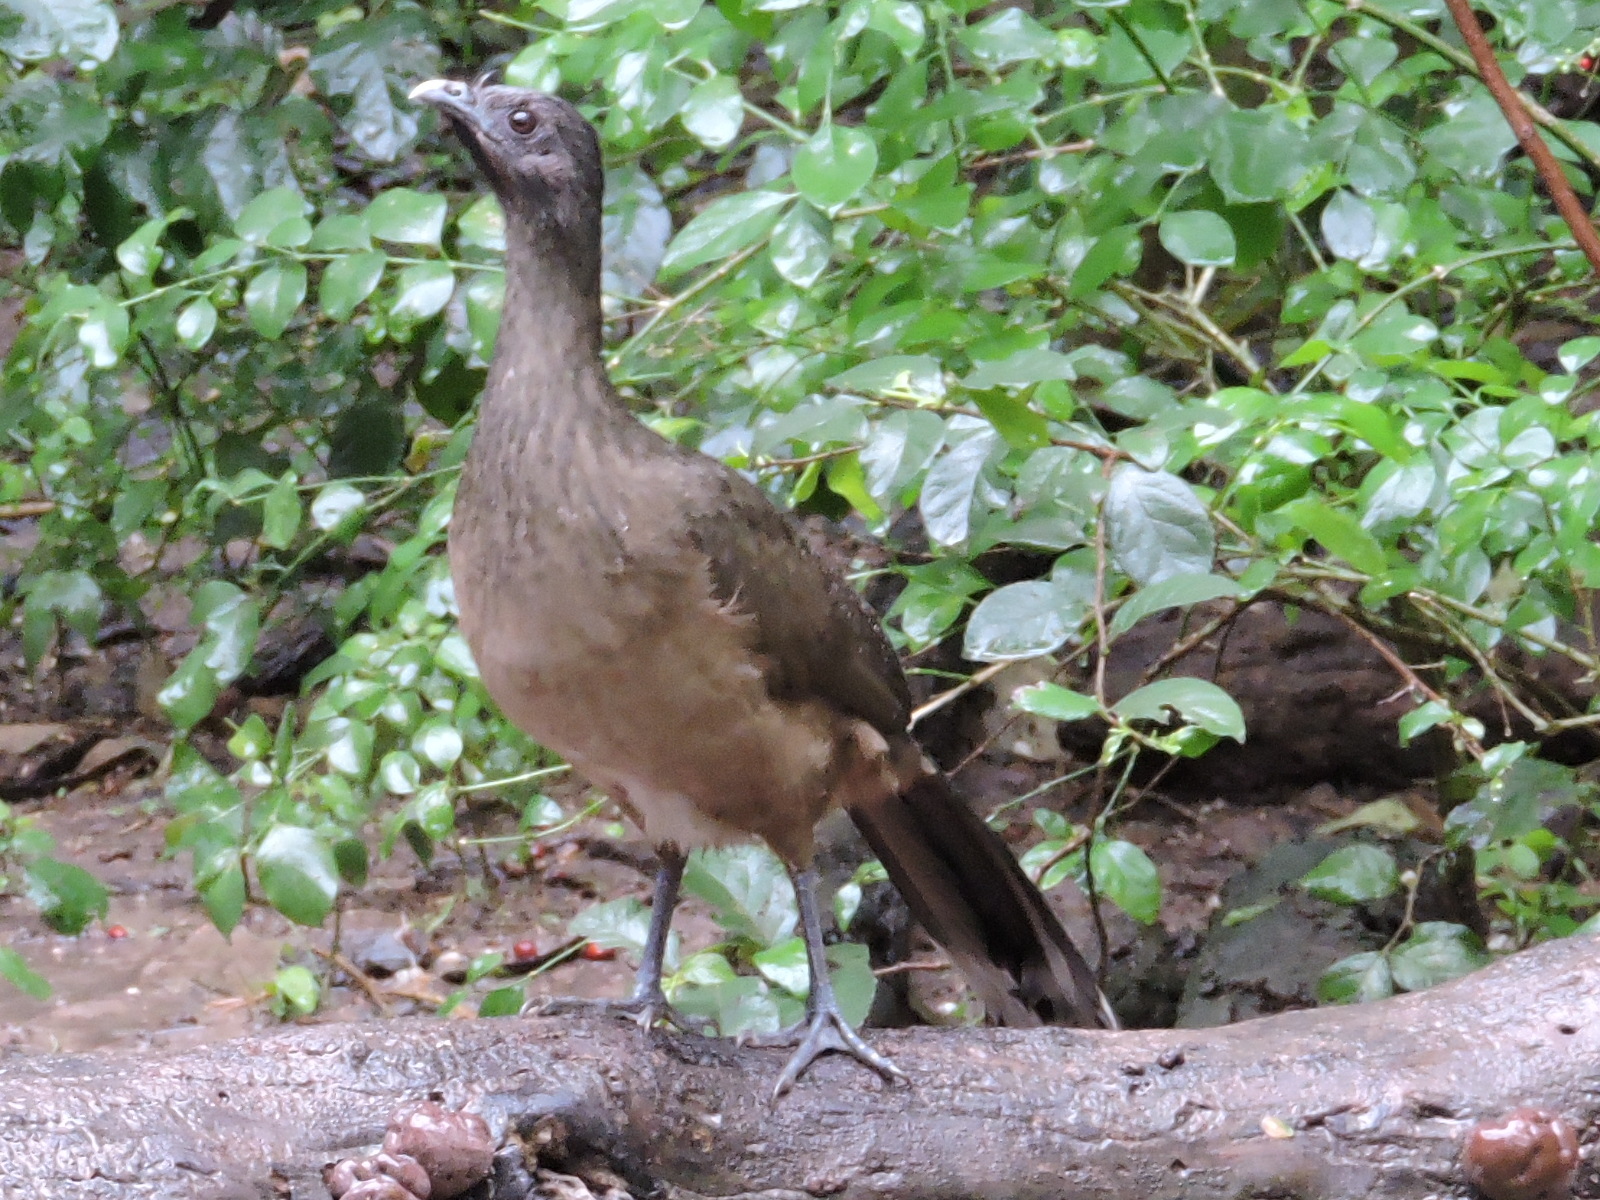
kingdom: Animalia
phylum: Chordata
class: Aves
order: Galliformes
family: Cracidae
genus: Ortalis
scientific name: Ortalis vetula
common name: Plain chachalaca
